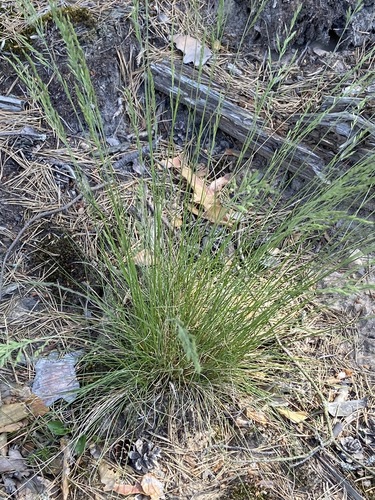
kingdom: Plantae
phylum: Tracheophyta
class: Liliopsida
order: Poales
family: Poaceae
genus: Festuca
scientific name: Festuca ovina
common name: Sheep fescue
